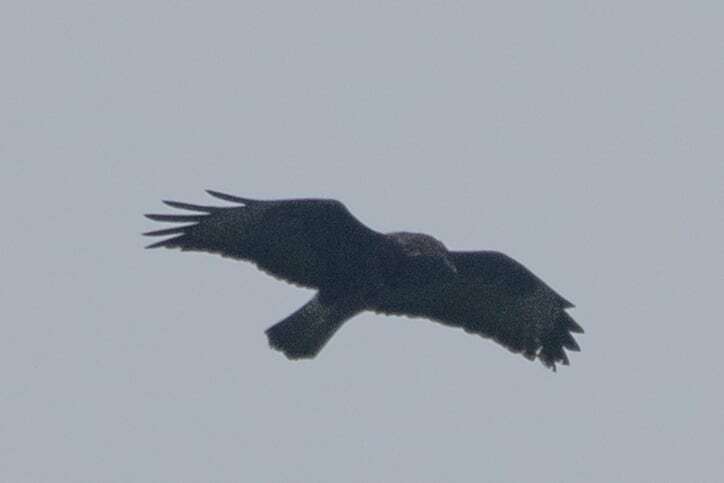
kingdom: Animalia
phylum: Chordata
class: Aves
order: Accipitriformes
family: Accipitridae
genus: Buteo
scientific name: Buteo buteo
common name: Common buzzard
